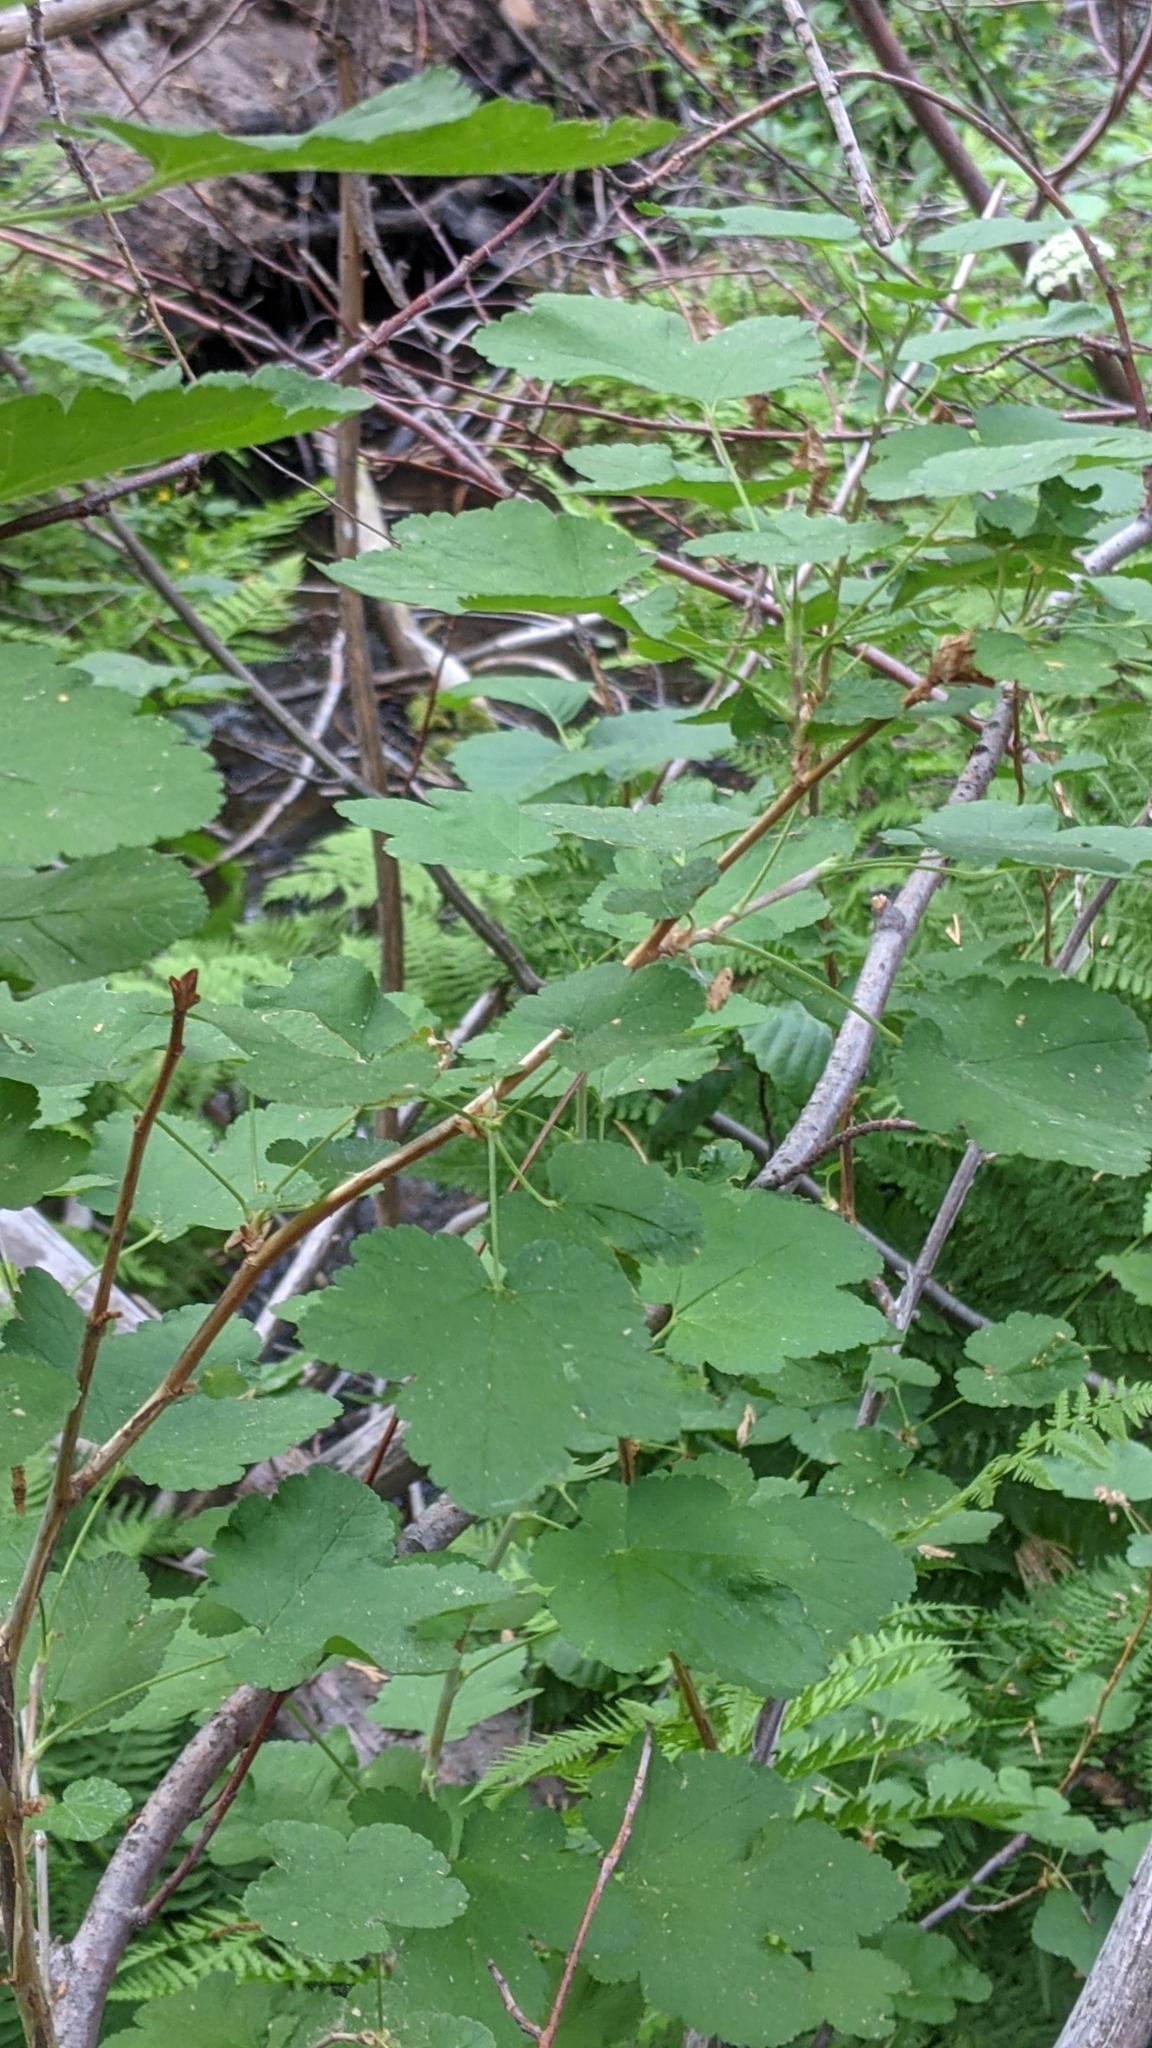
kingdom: Plantae
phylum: Tracheophyta
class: Magnoliopsida
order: Saxifragales
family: Grossulariaceae
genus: Ribes
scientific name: Ribes nevadense
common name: Mountain pink currant
